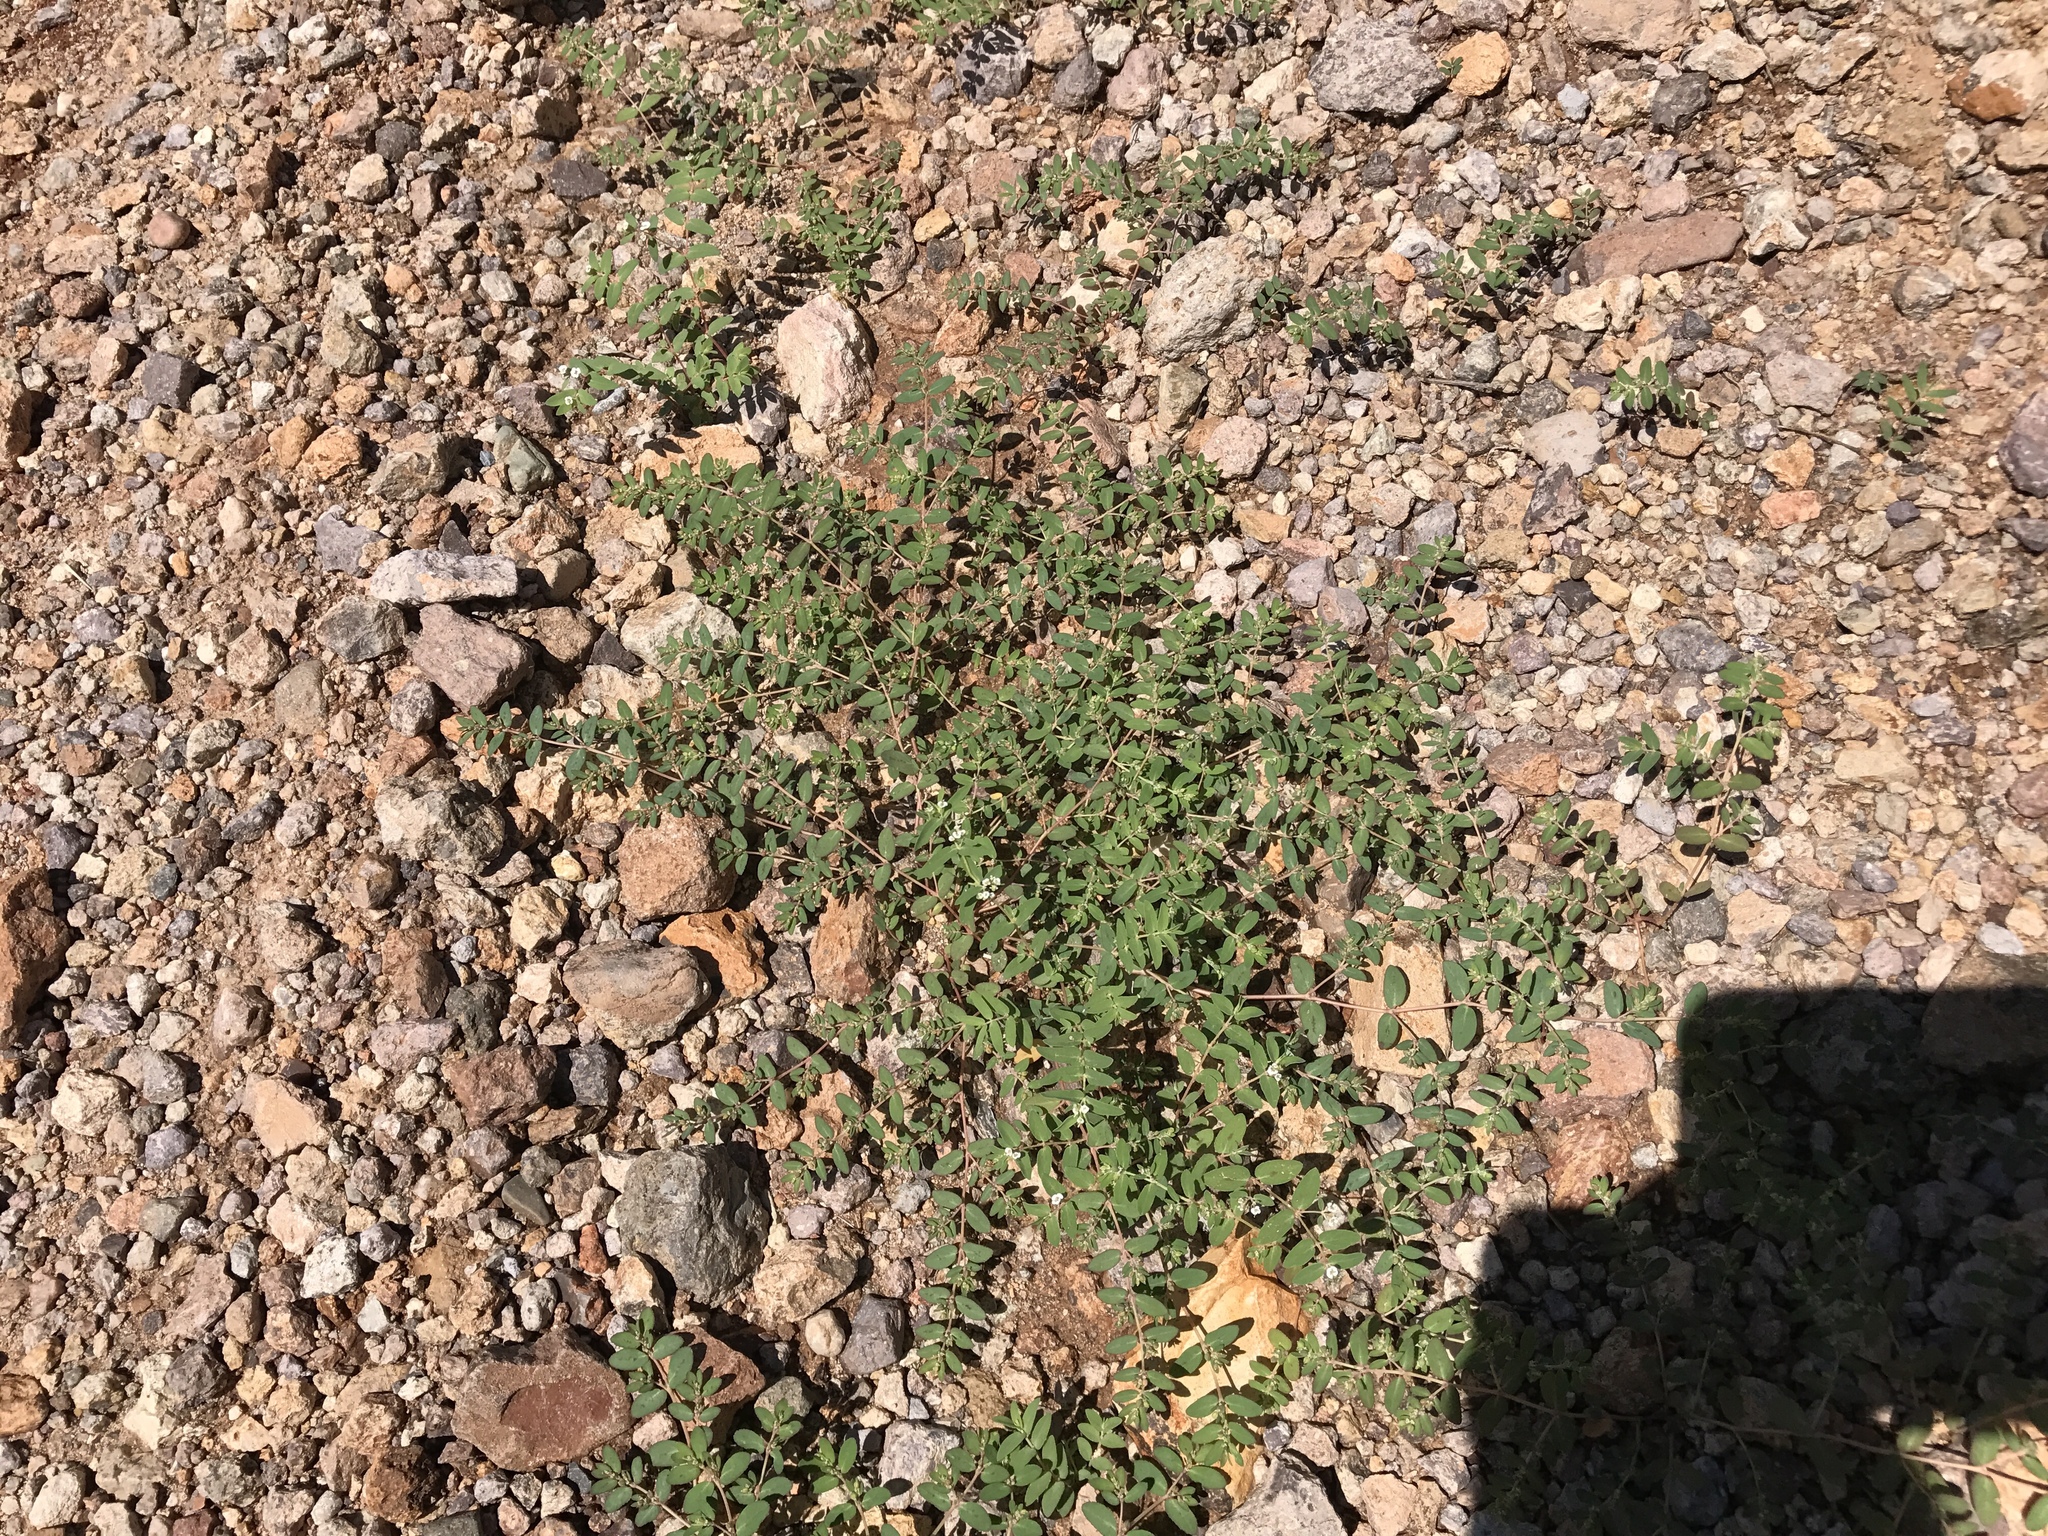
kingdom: Plantae
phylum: Tracheophyta
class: Magnoliopsida
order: Malpighiales
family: Euphorbiaceae
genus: Euphorbia
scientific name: Euphorbia abramsiana
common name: Abram's spurge
